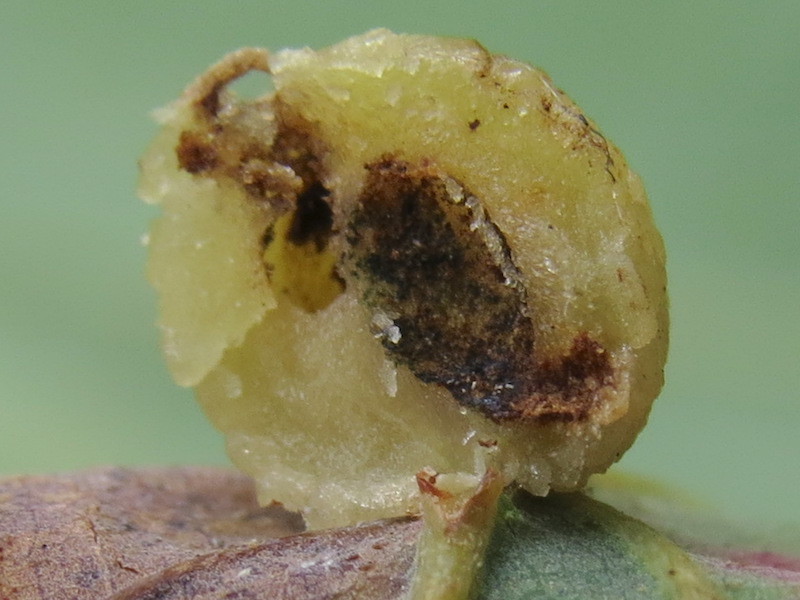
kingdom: Animalia
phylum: Arthropoda
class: Insecta
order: Hymenoptera
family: Cynipidae
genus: Acraspis
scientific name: Acraspis
